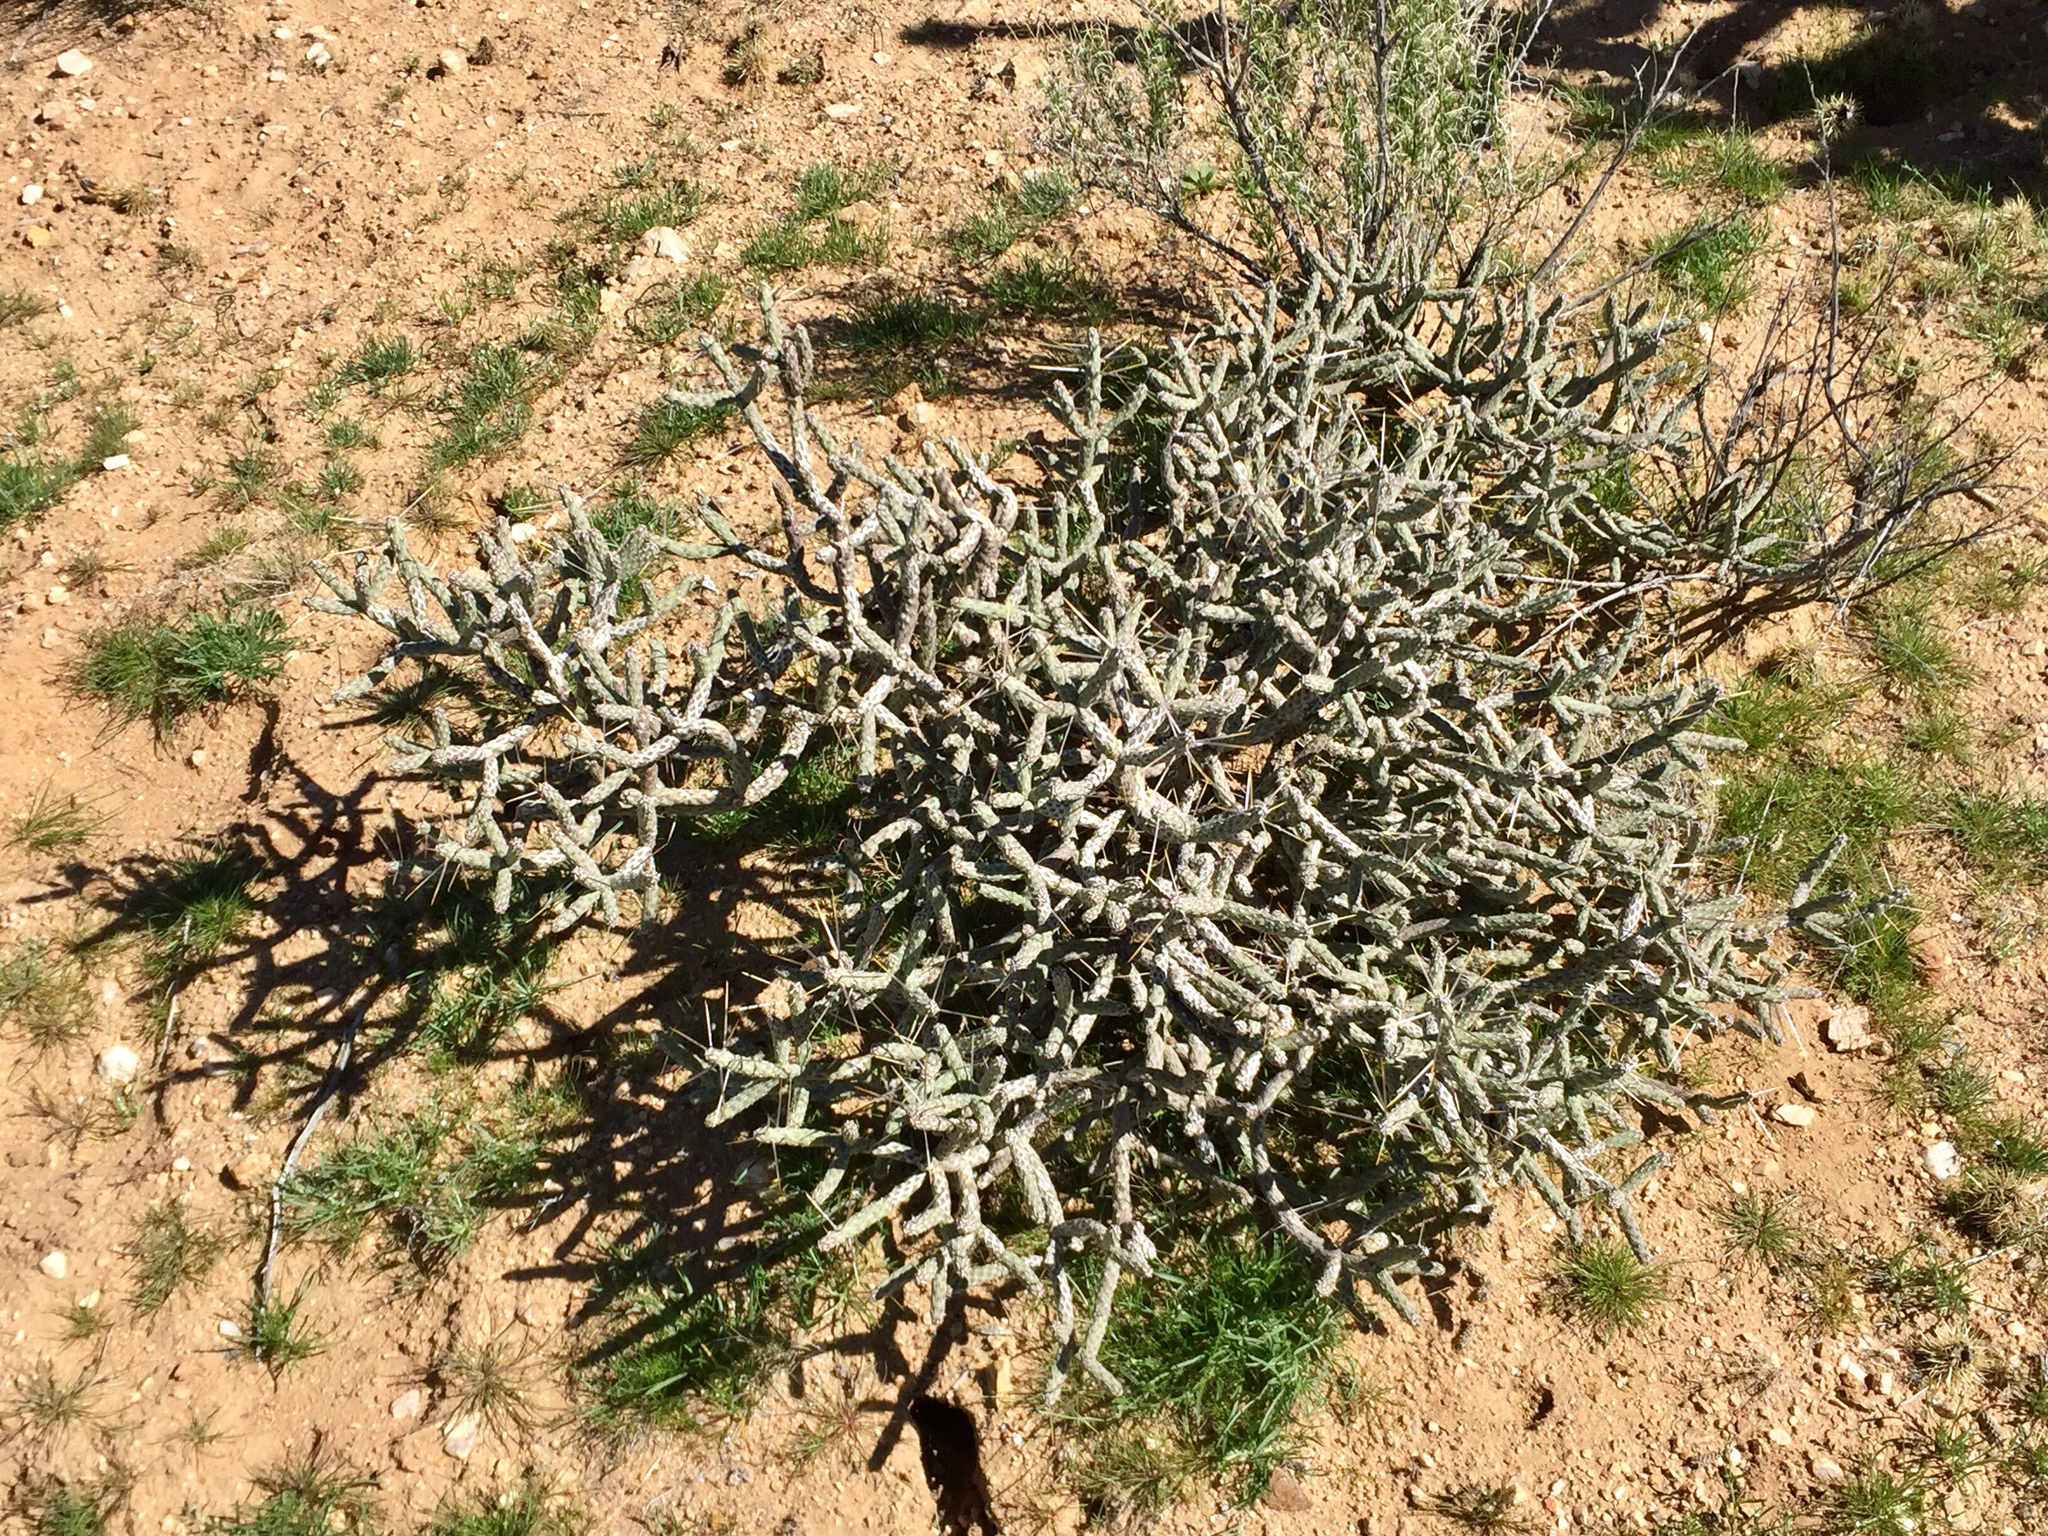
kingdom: Plantae
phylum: Tracheophyta
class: Magnoliopsida
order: Caryophyllales
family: Cactaceae
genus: Cylindropuntia
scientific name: Cylindropuntia ramosissima
